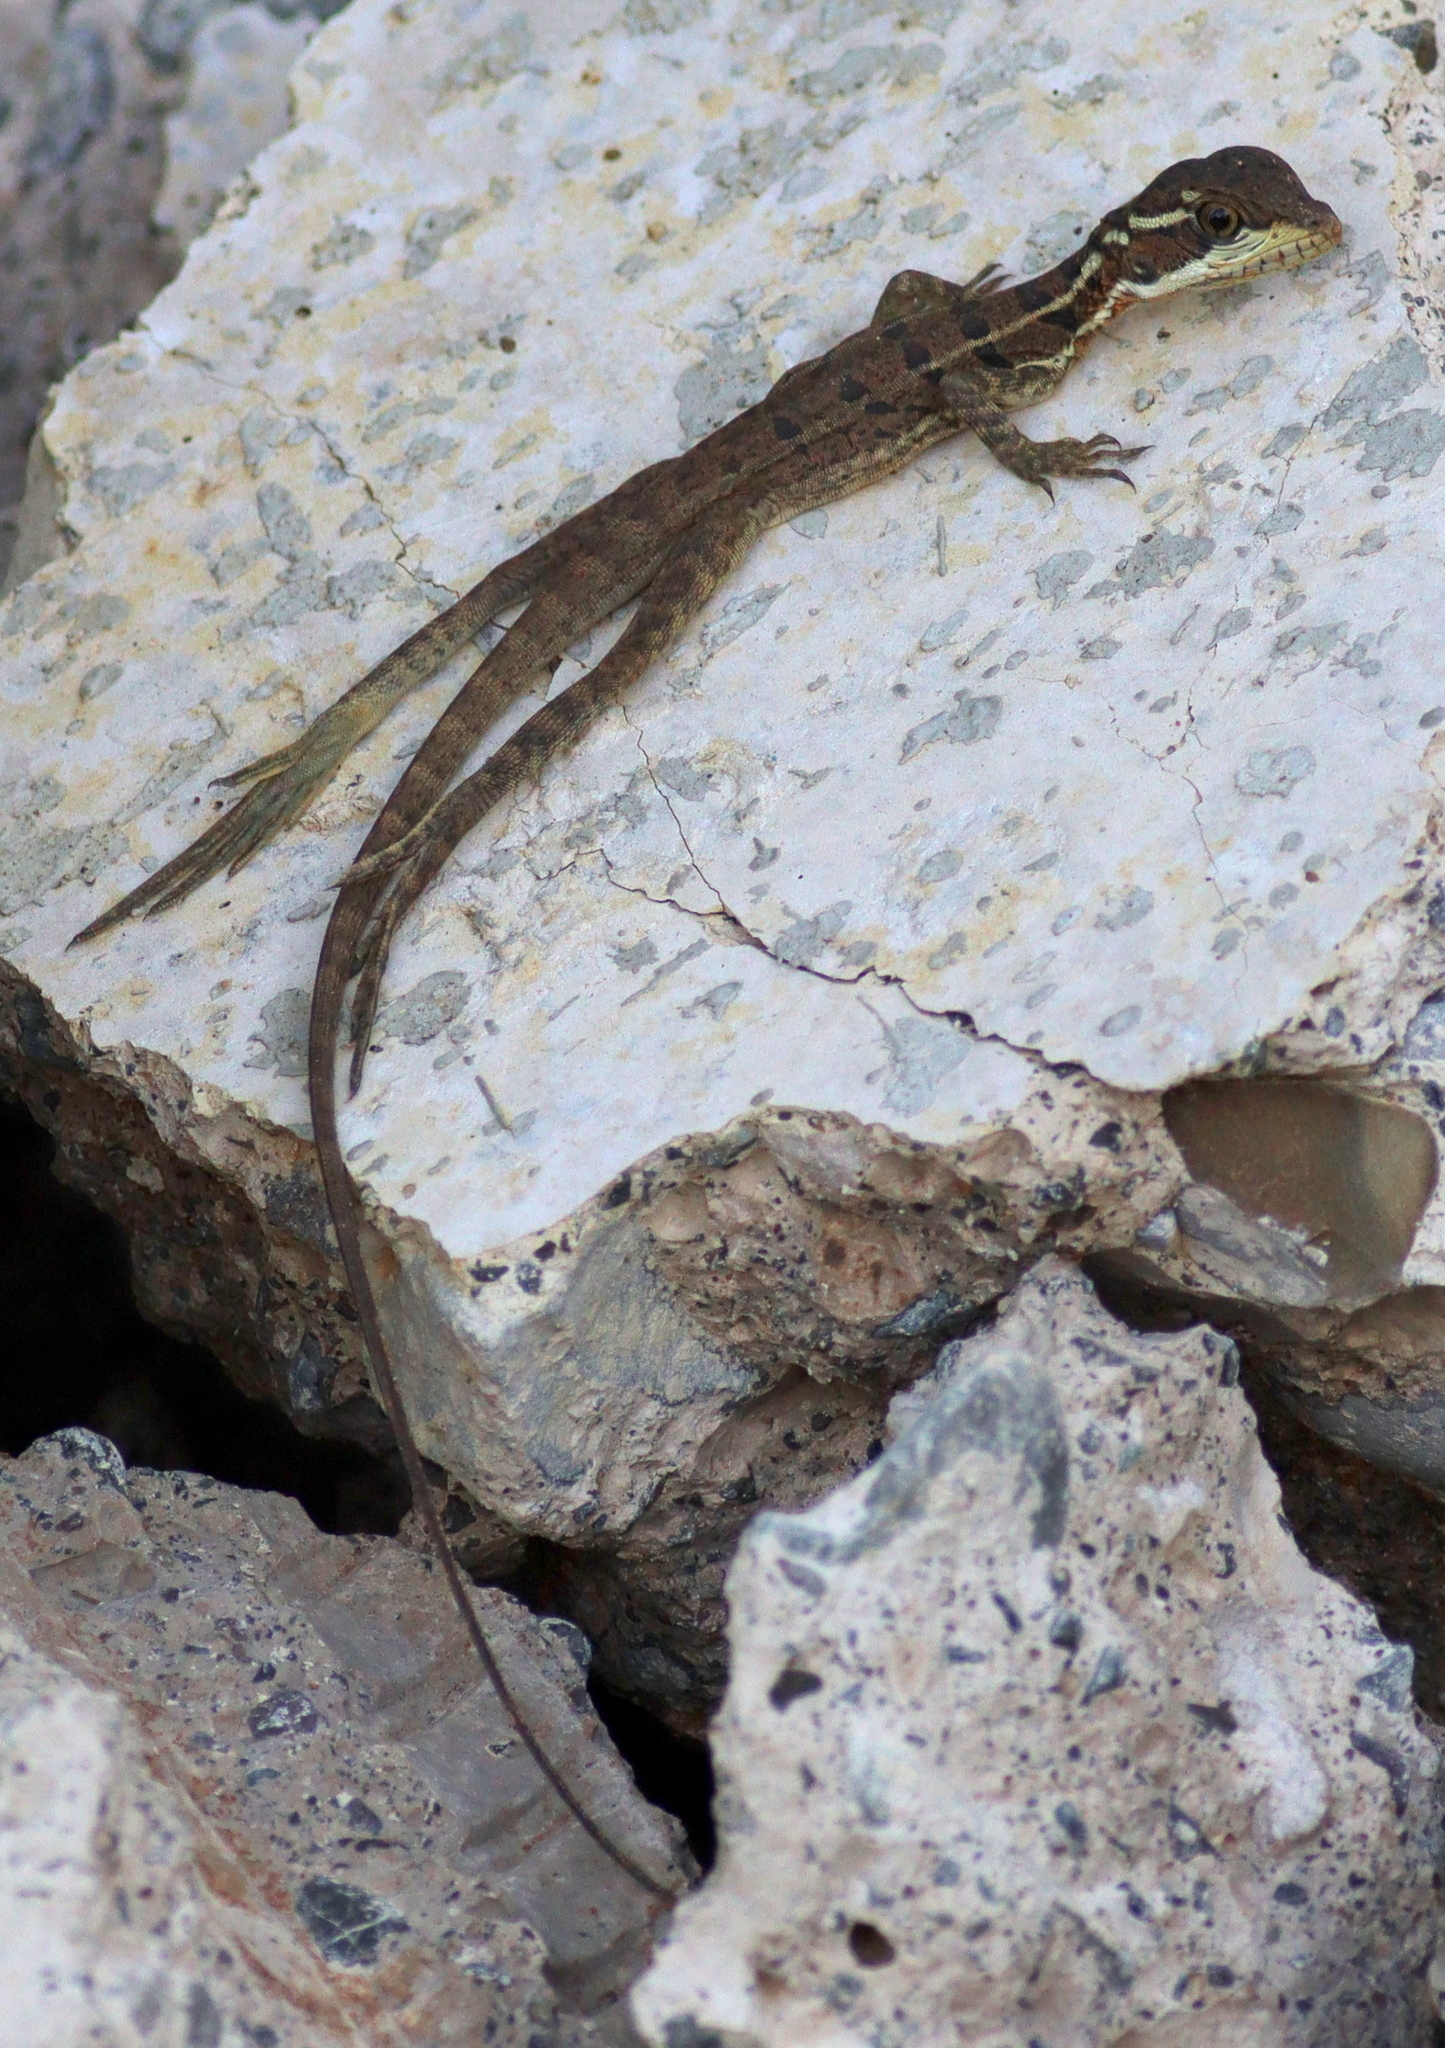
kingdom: Animalia
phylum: Chordata
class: Squamata
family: Corytophanidae
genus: Basiliscus
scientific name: Basiliscus basiliscus
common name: Common basilisk
